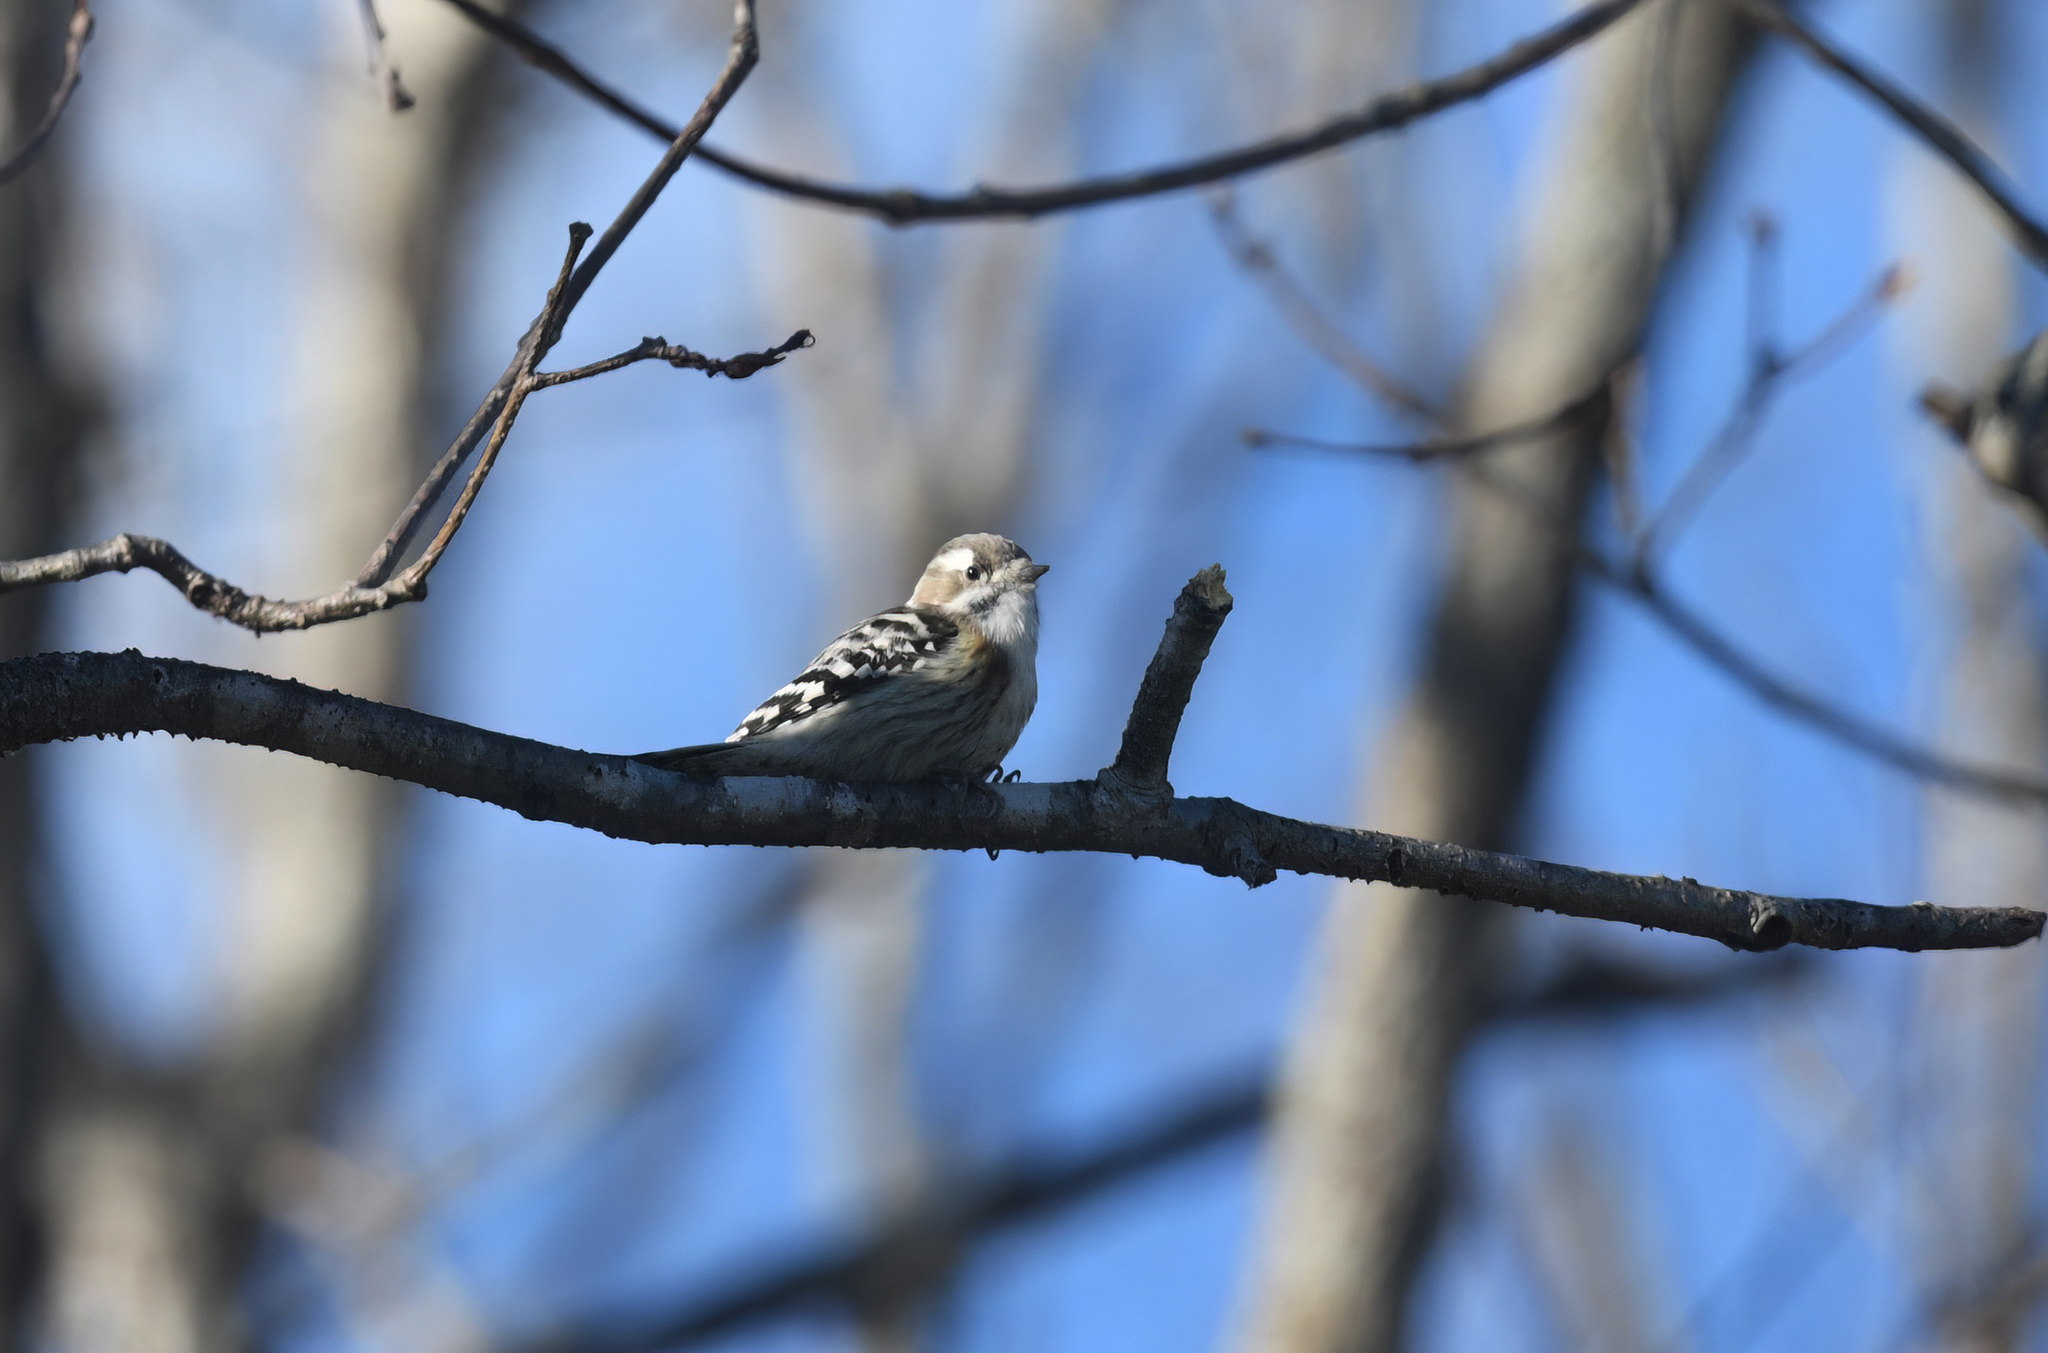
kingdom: Animalia
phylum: Chordata
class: Aves
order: Piciformes
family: Picidae
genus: Yungipicus
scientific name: Yungipicus kizuki
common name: Japanese pygmy woodpecker
